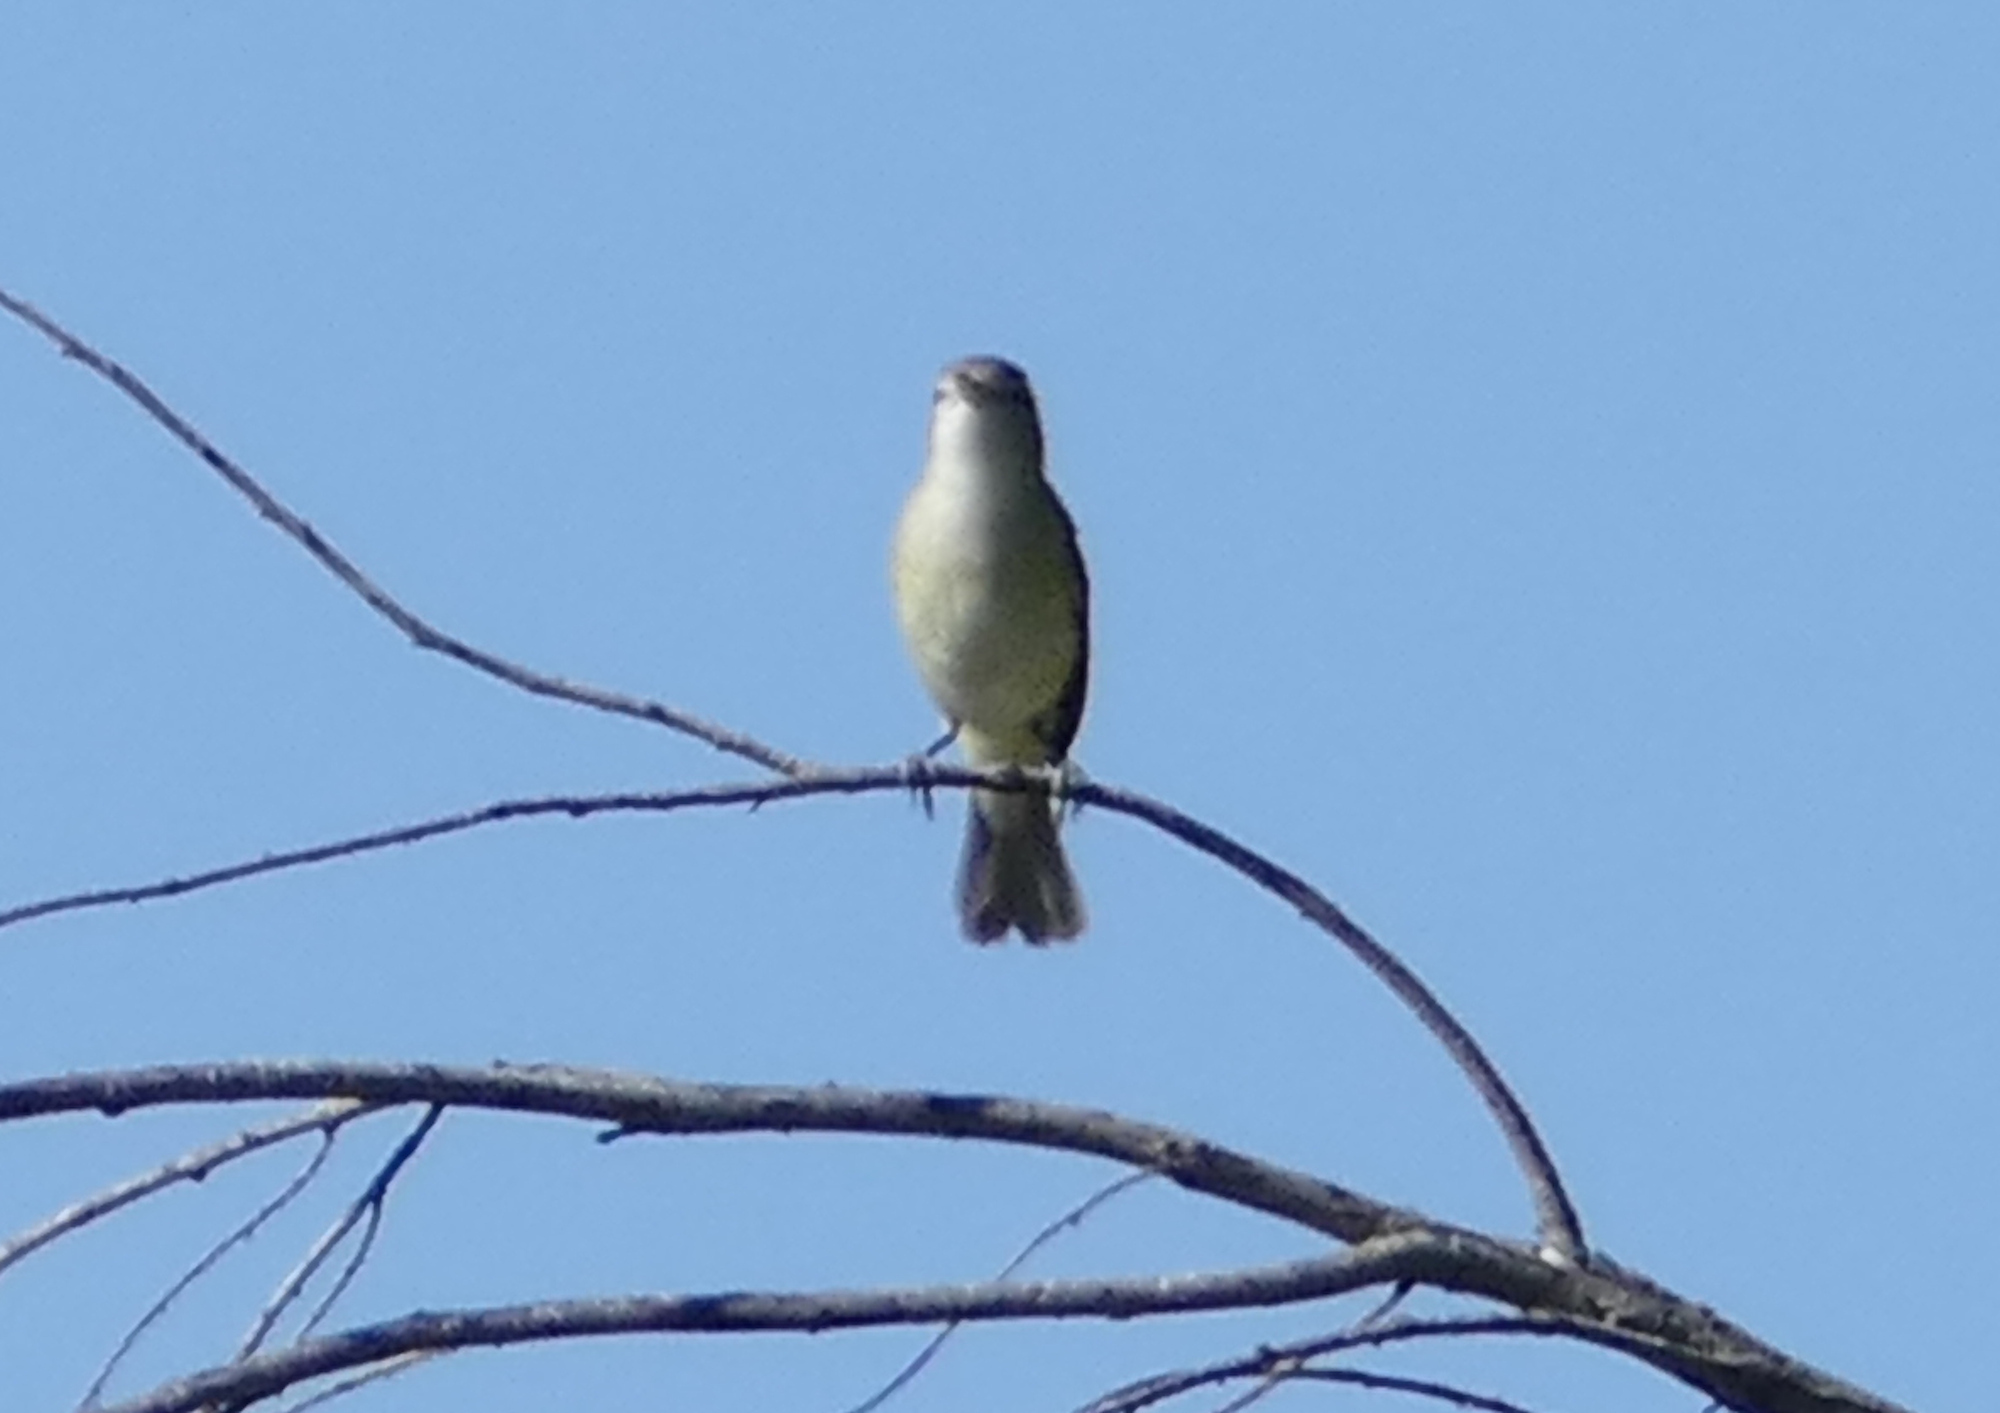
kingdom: Animalia
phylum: Chordata
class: Aves
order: Passeriformes
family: Vireonidae
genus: Vireo
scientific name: Vireo bellii
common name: Bell's vireo
